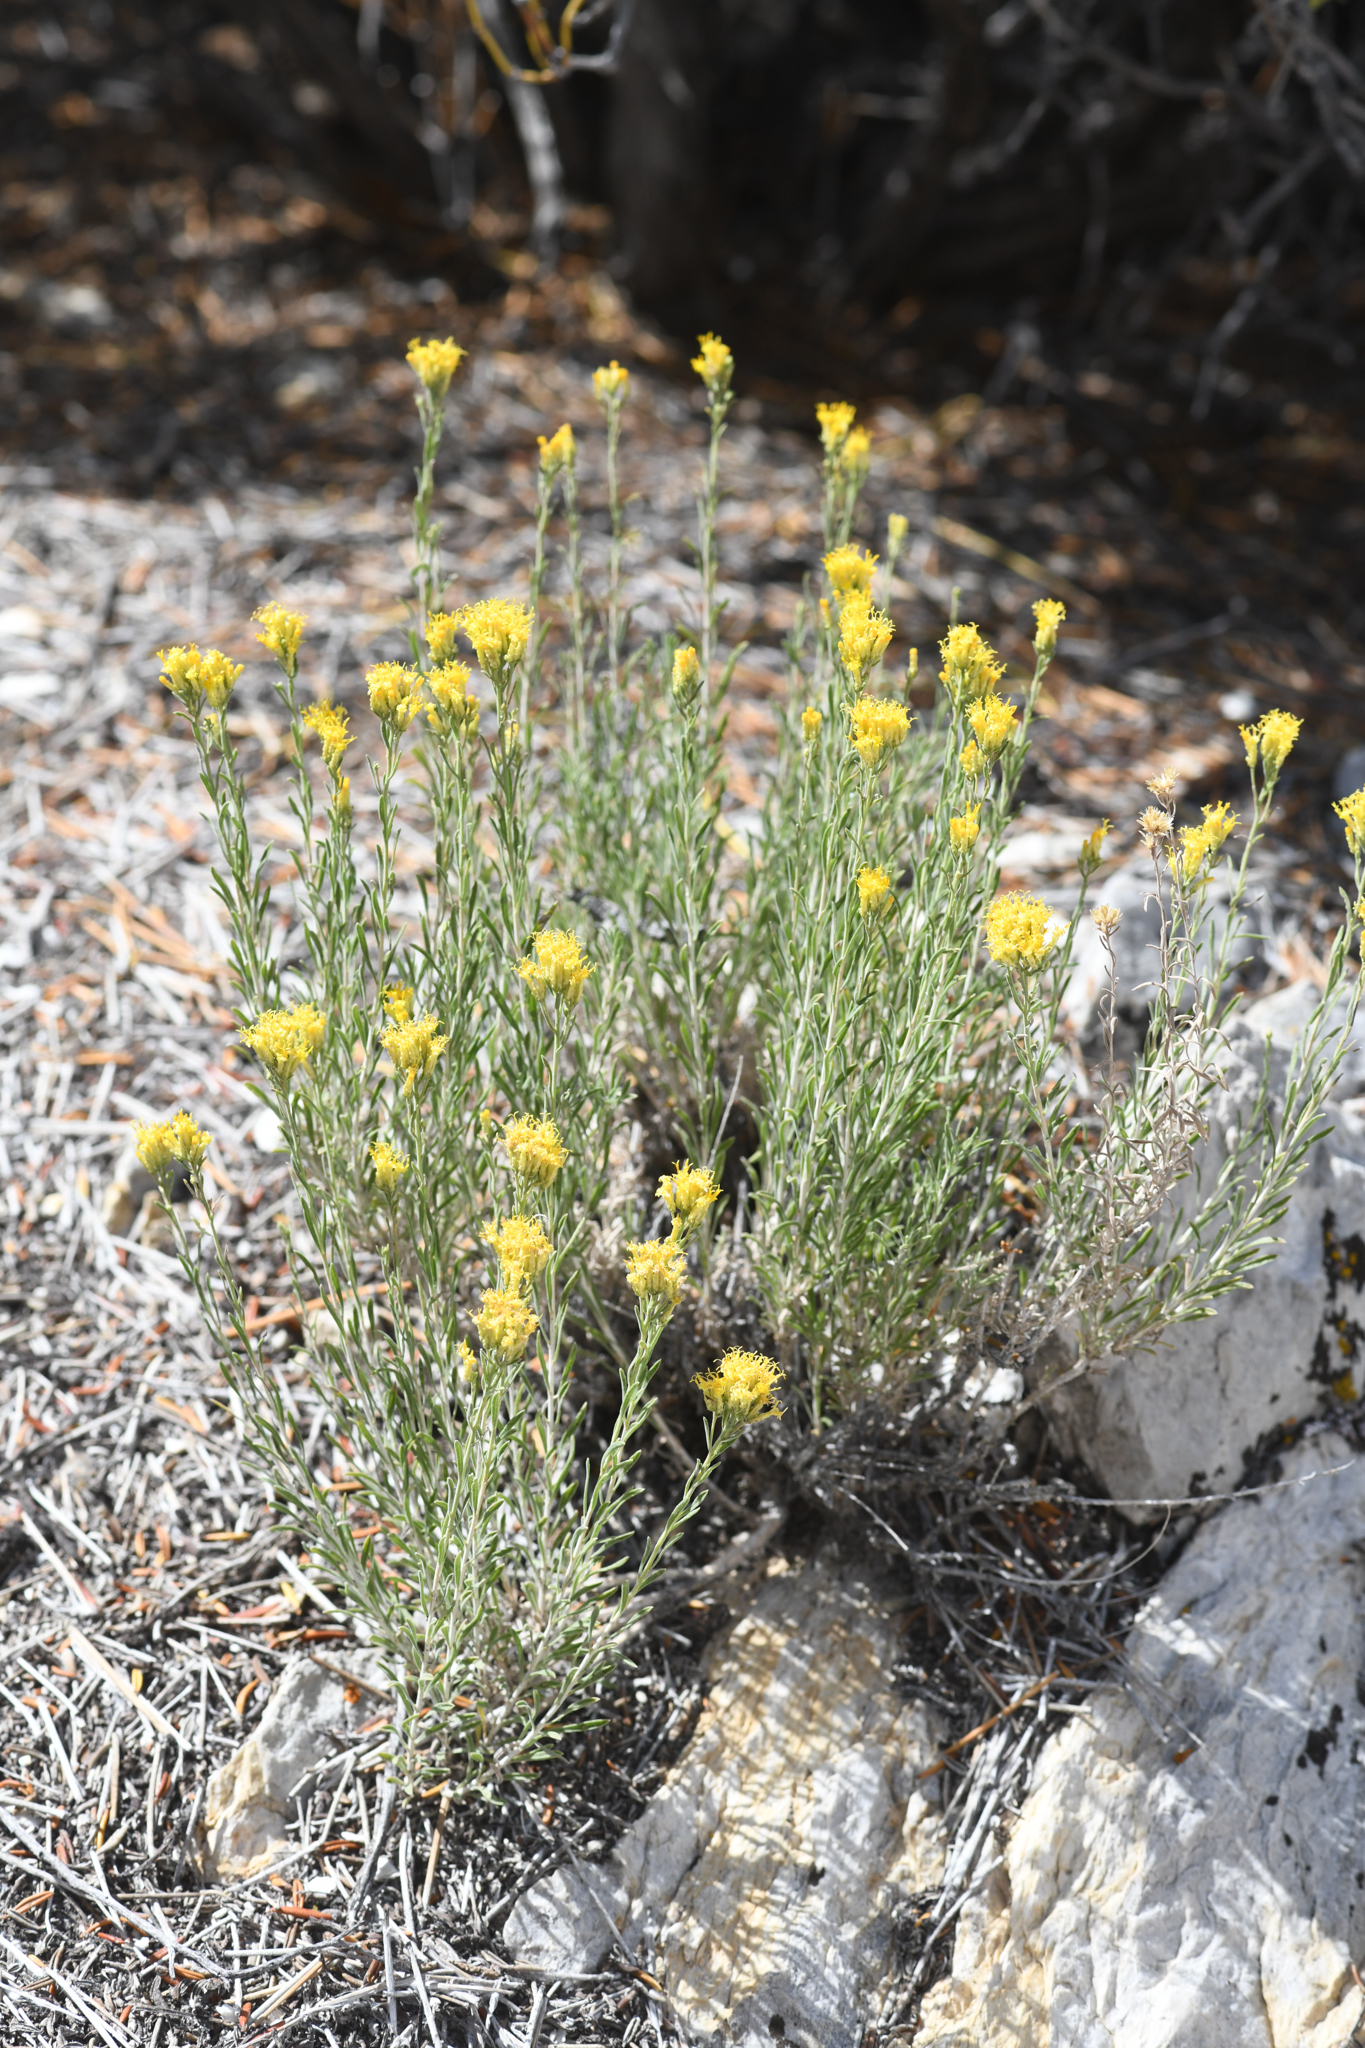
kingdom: Plantae
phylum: Tracheophyta
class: Magnoliopsida
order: Asterales
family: Asteraceae
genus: Chrysothamnus
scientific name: Chrysothamnus viscidiflorus
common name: Yellow rabbitbrush
